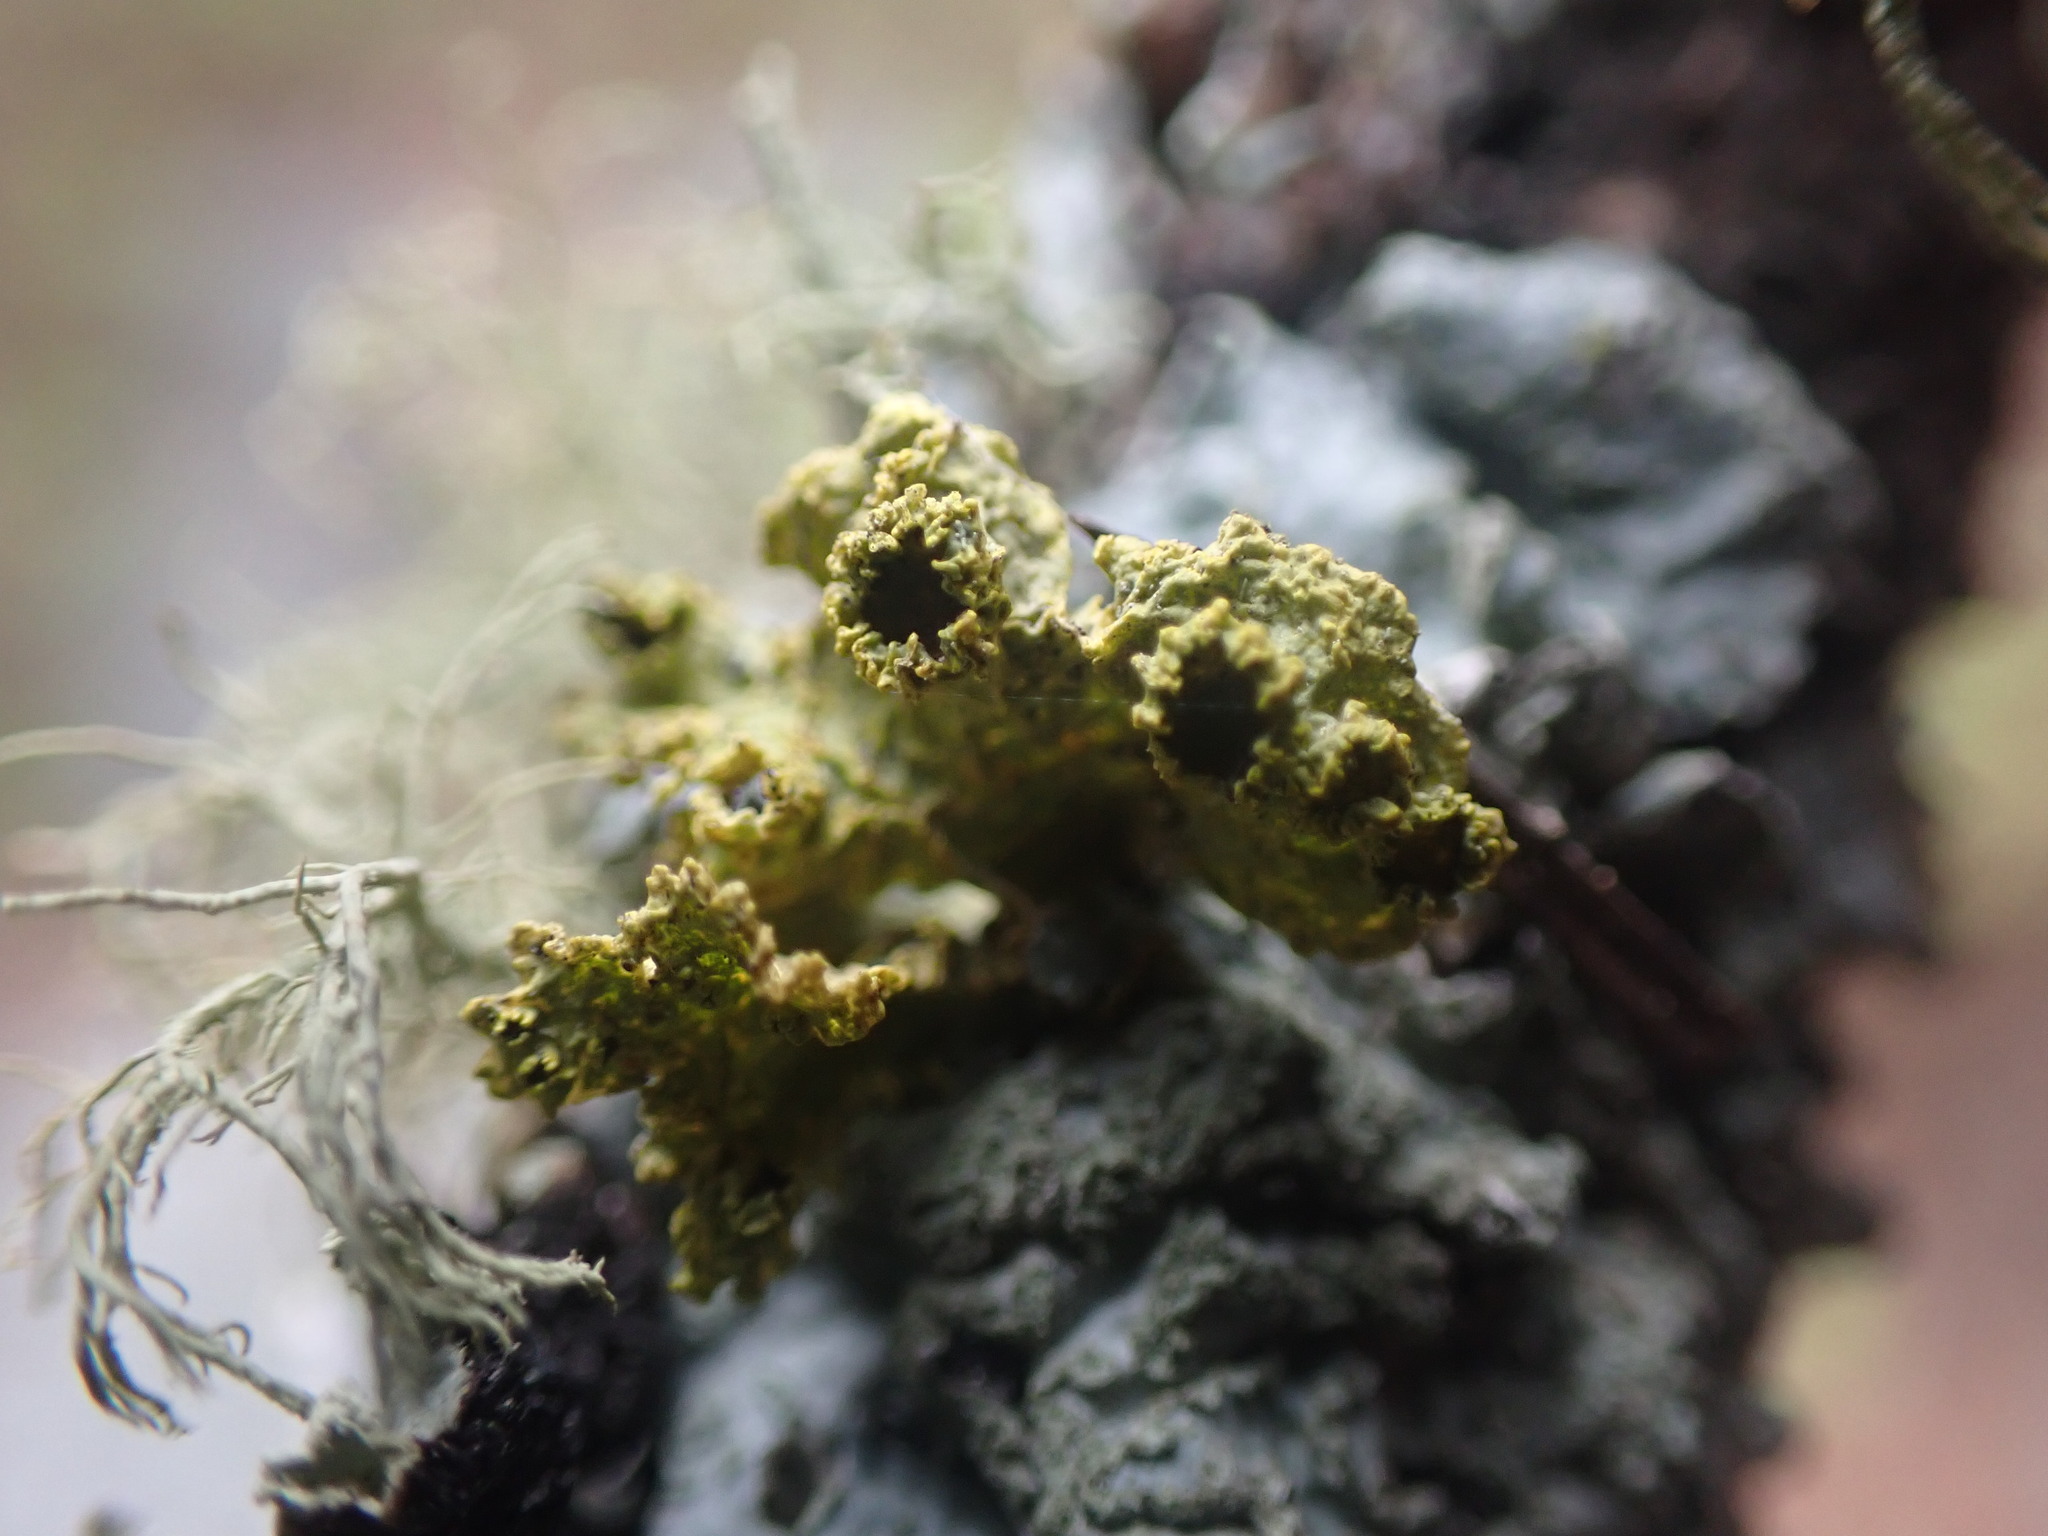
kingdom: Fungi
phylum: Ascomycota
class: Lecanoromycetes
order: Lecanorales
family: Parmeliaceae
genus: Vulpicida
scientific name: Vulpicida canadensis
